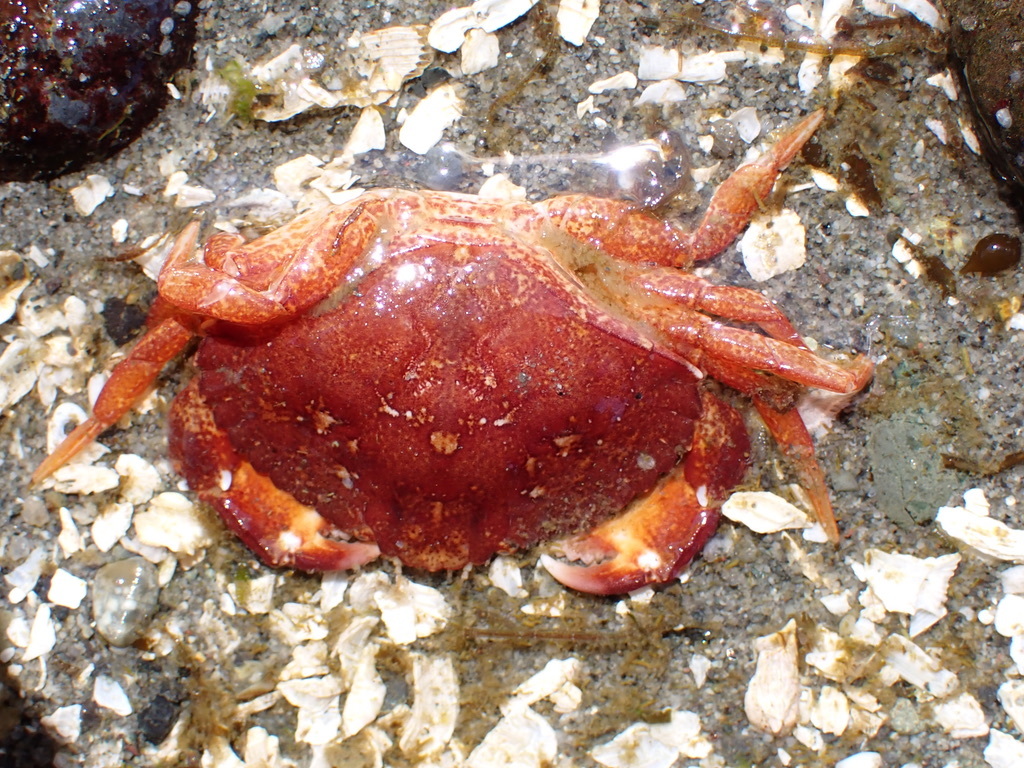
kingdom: Animalia
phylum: Arthropoda
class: Malacostraca
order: Decapoda
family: Cancridae
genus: Cancer
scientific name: Cancer productus
